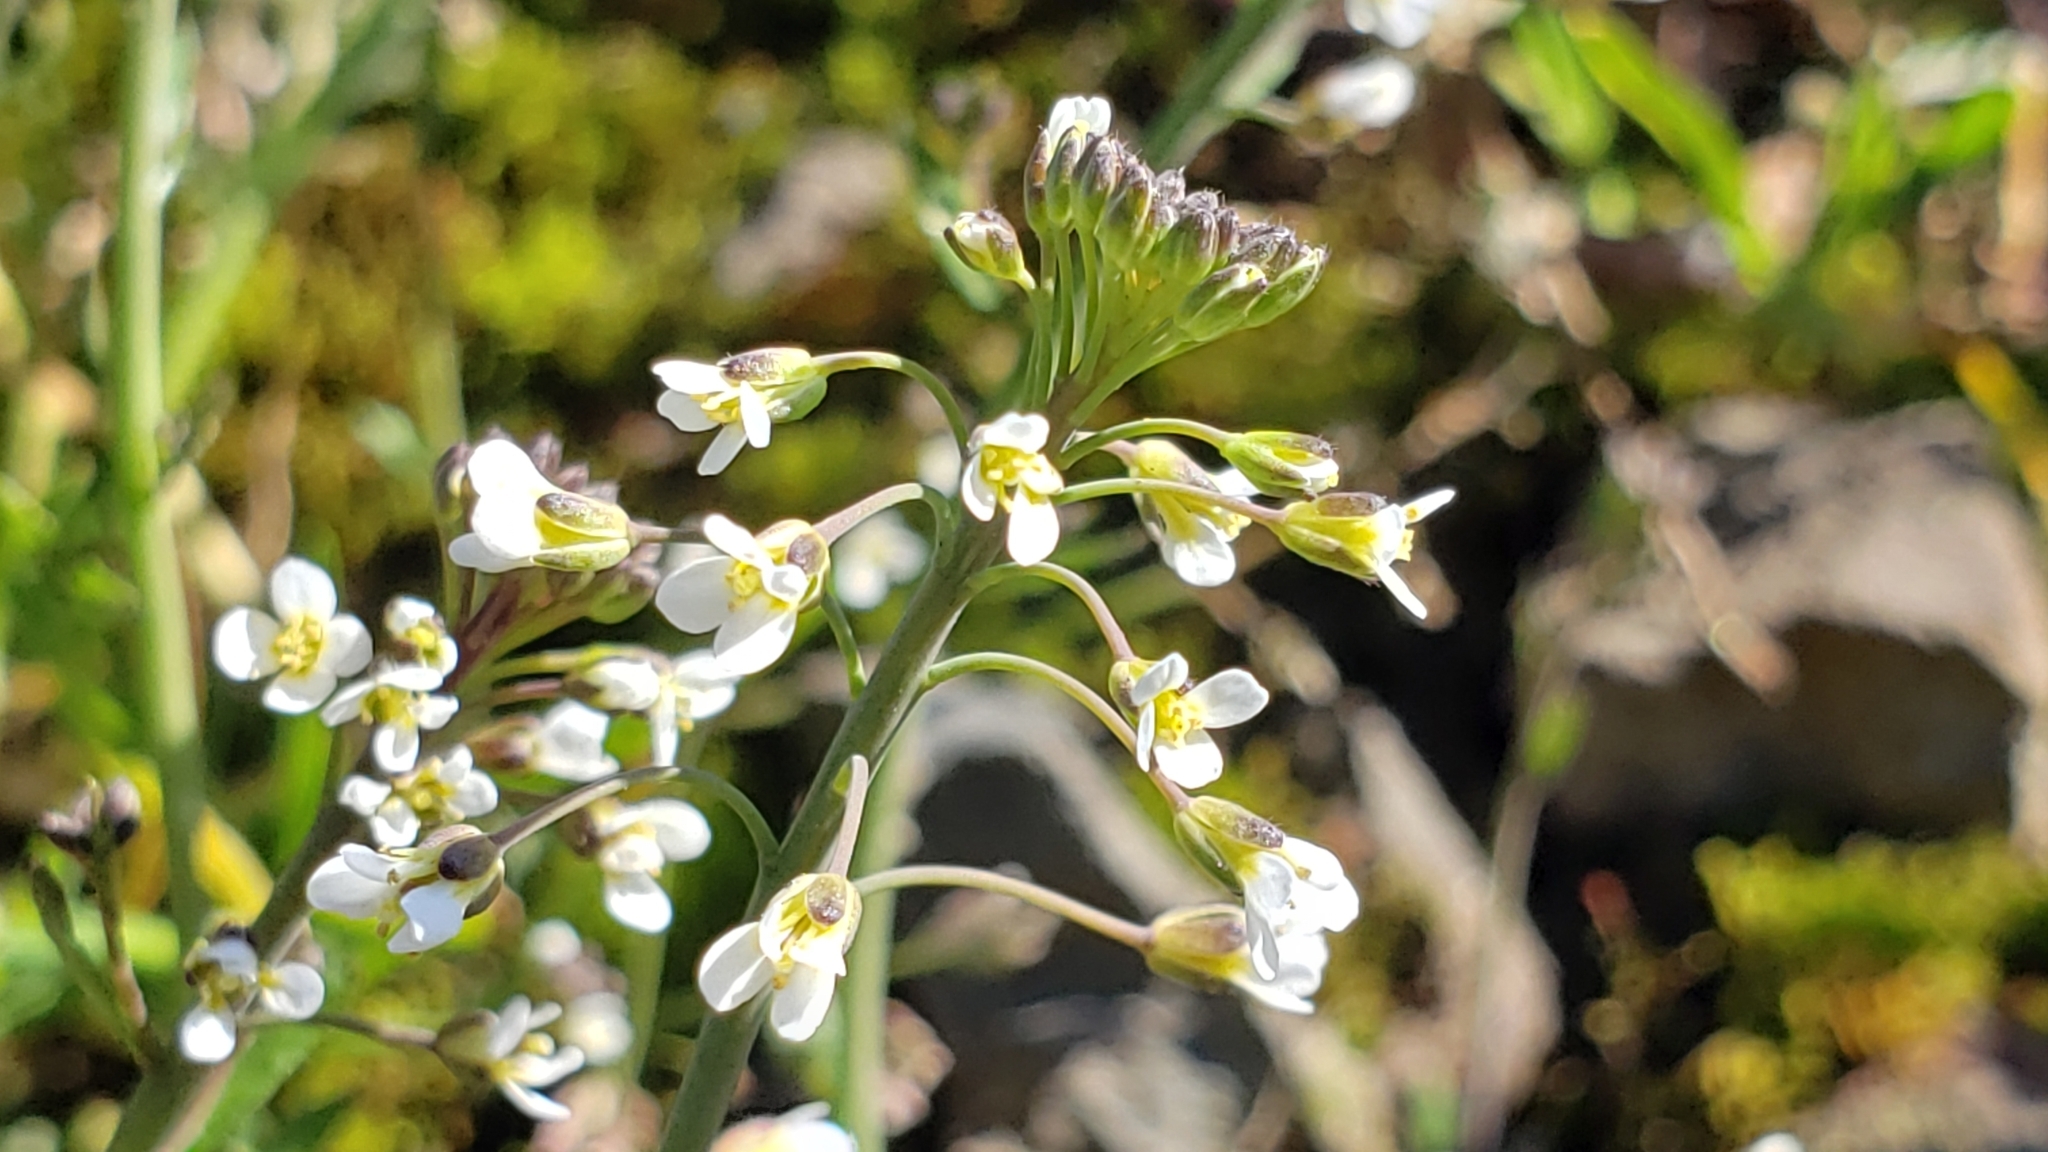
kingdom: Plantae
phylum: Tracheophyta
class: Magnoliopsida
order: Brassicales
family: Brassicaceae
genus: Arabidopsis
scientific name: Arabidopsis thaliana
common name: Thale cress
